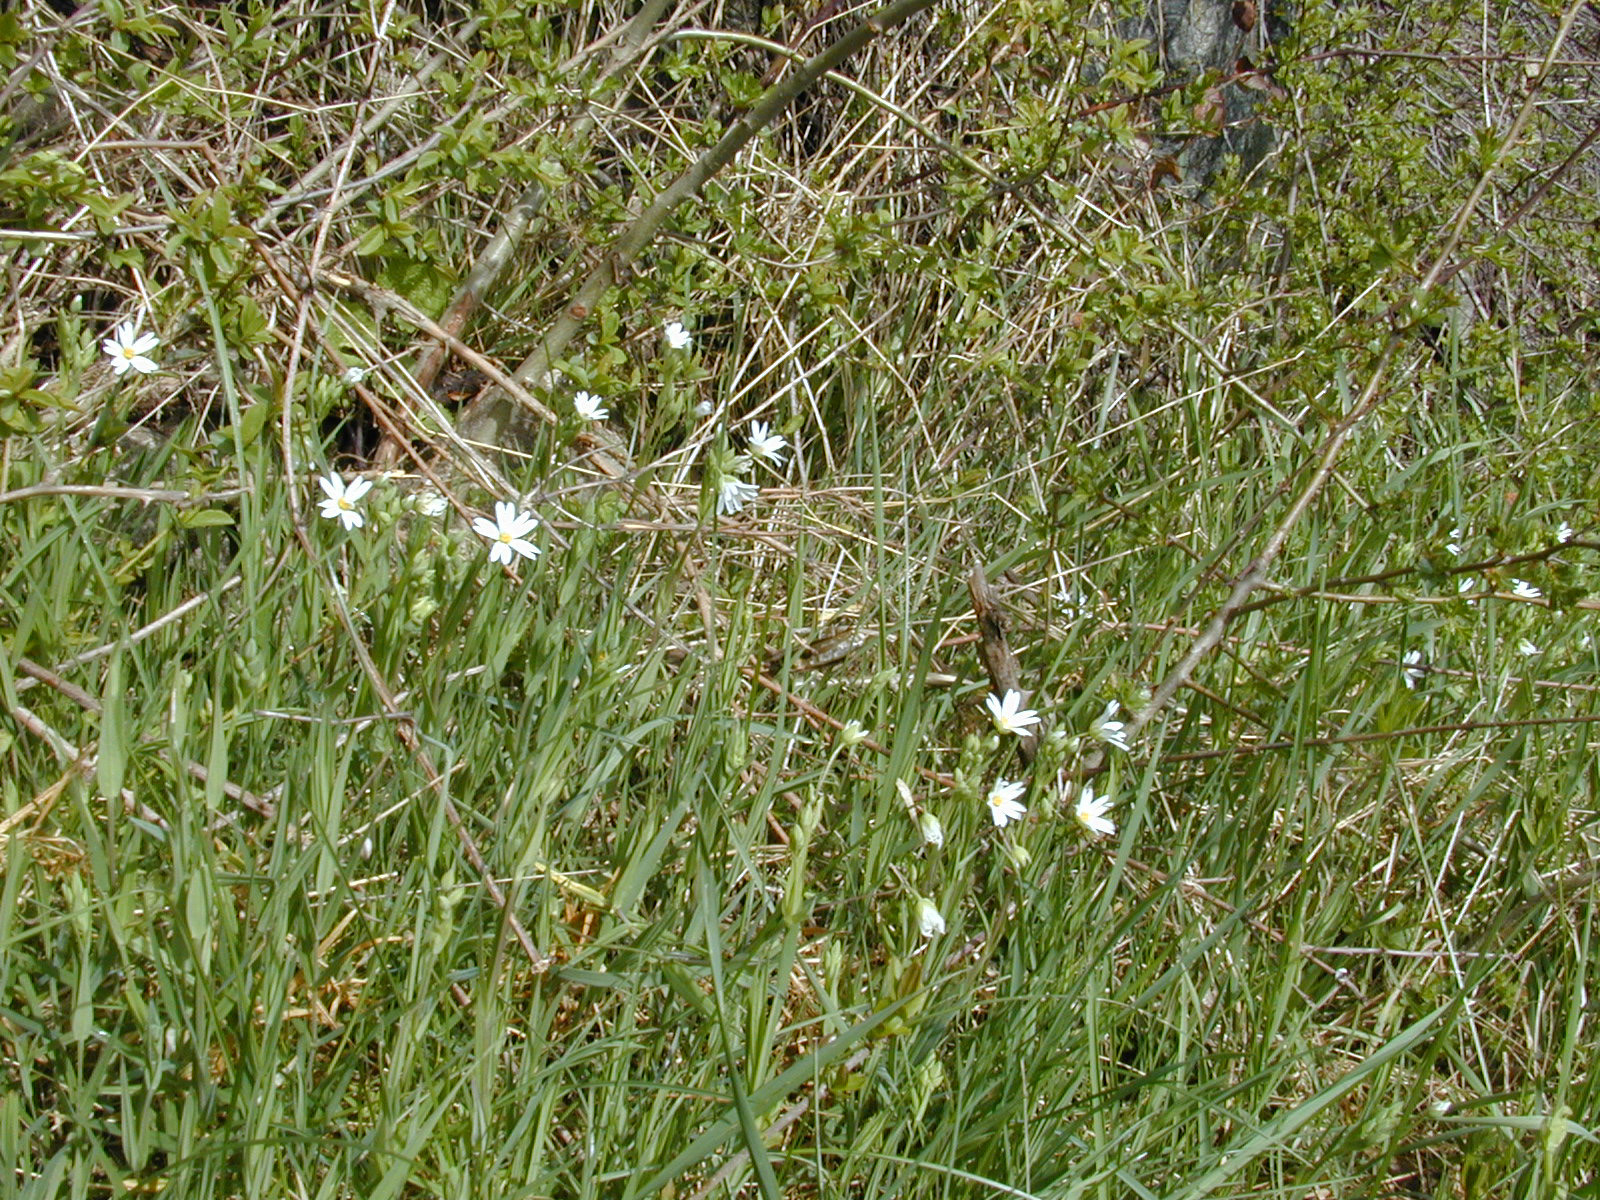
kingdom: Plantae
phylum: Tracheophyta
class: Magnoliopsida
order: Caryophyllales
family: Caryophyllaceae
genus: Rabelera
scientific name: Rabelera holostea
